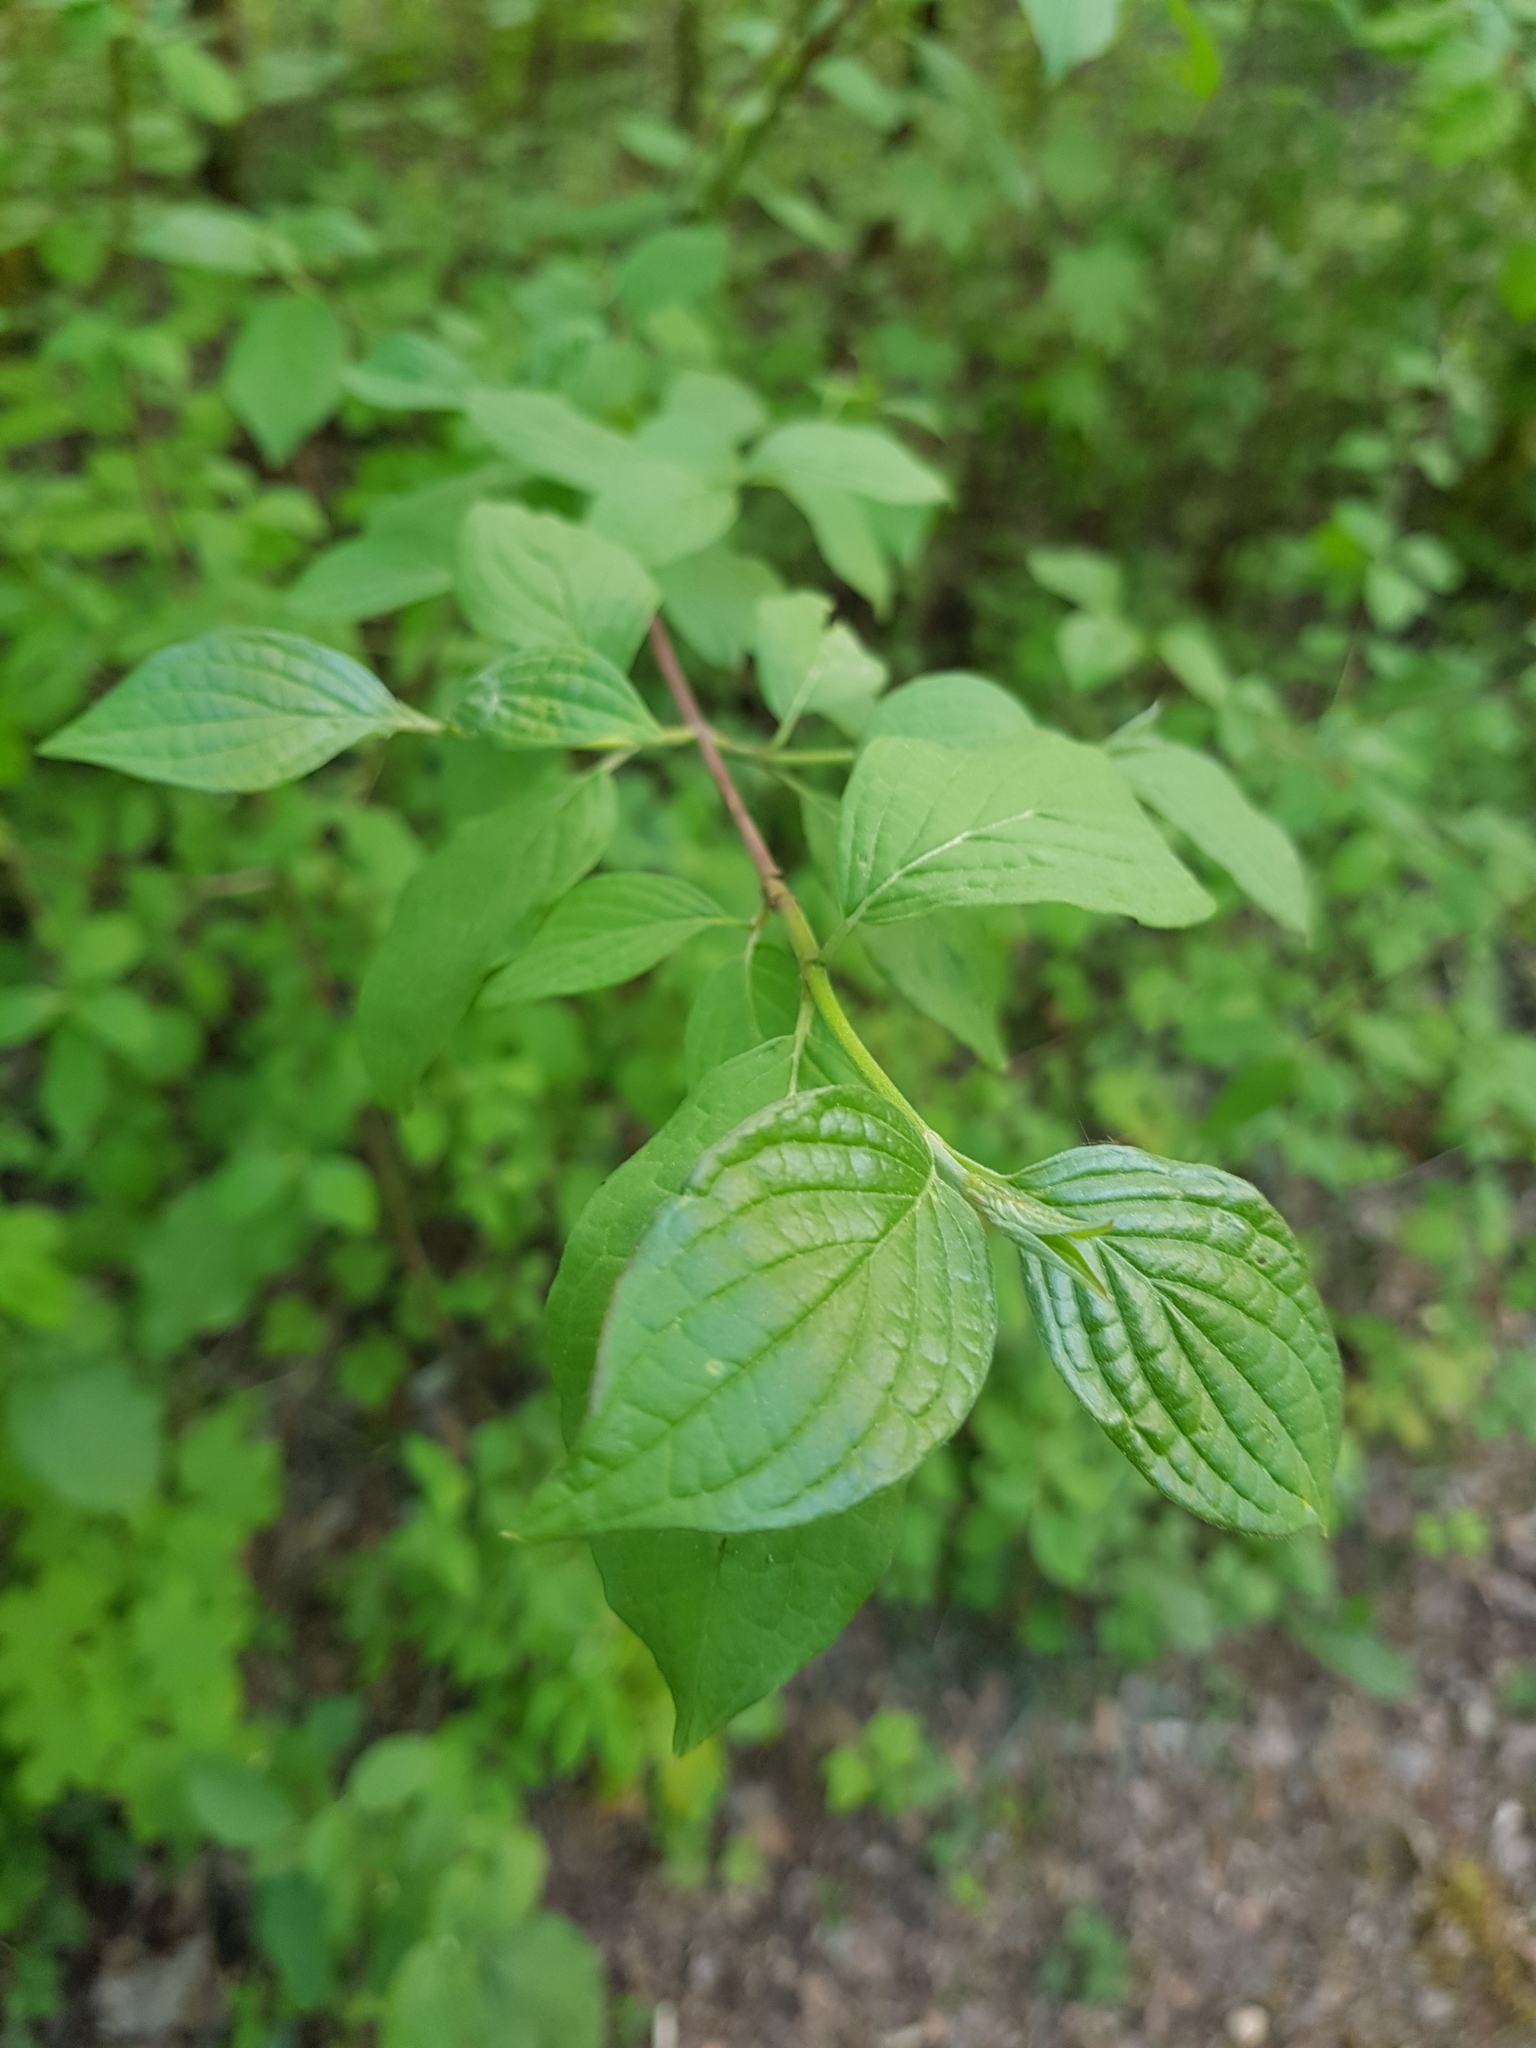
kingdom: Plantae
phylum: Tracheophyta
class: Magnoliopsida
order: Cornales
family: Cornaceae
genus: Cornus
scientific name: Cornus sanguinea
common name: Dogwood
